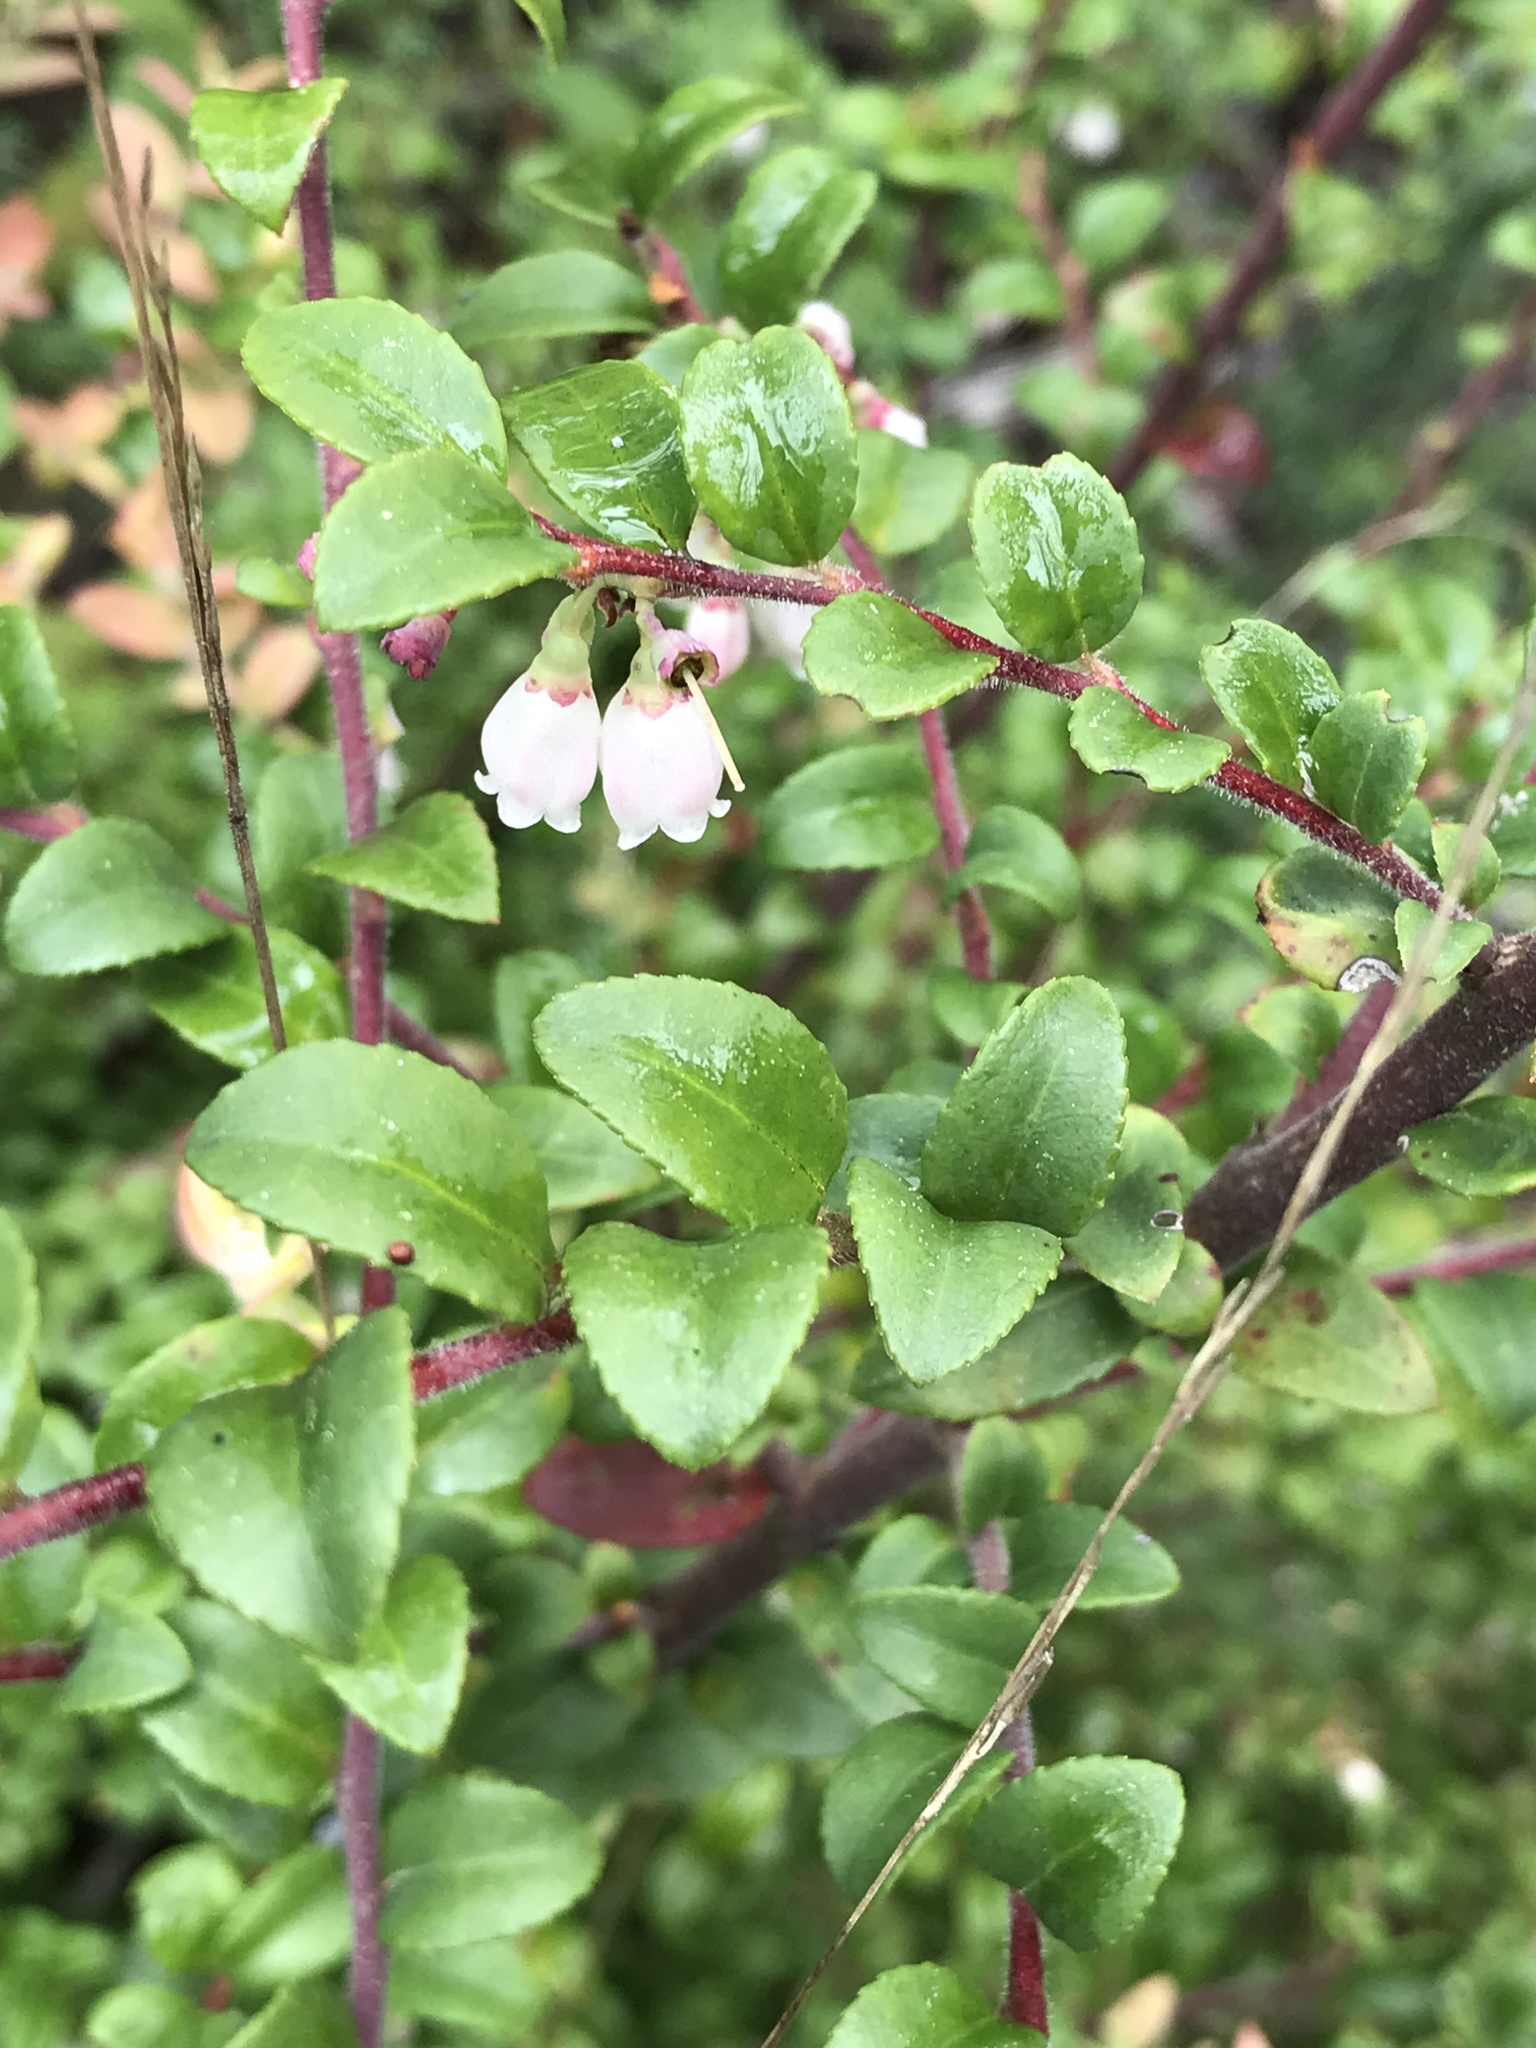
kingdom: Plantae
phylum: Tracheophyta
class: Magnoliopsida
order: Ericales
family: Ericaceae
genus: Vaccinium
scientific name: Vaccinium ovatum
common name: California-huckleberry
